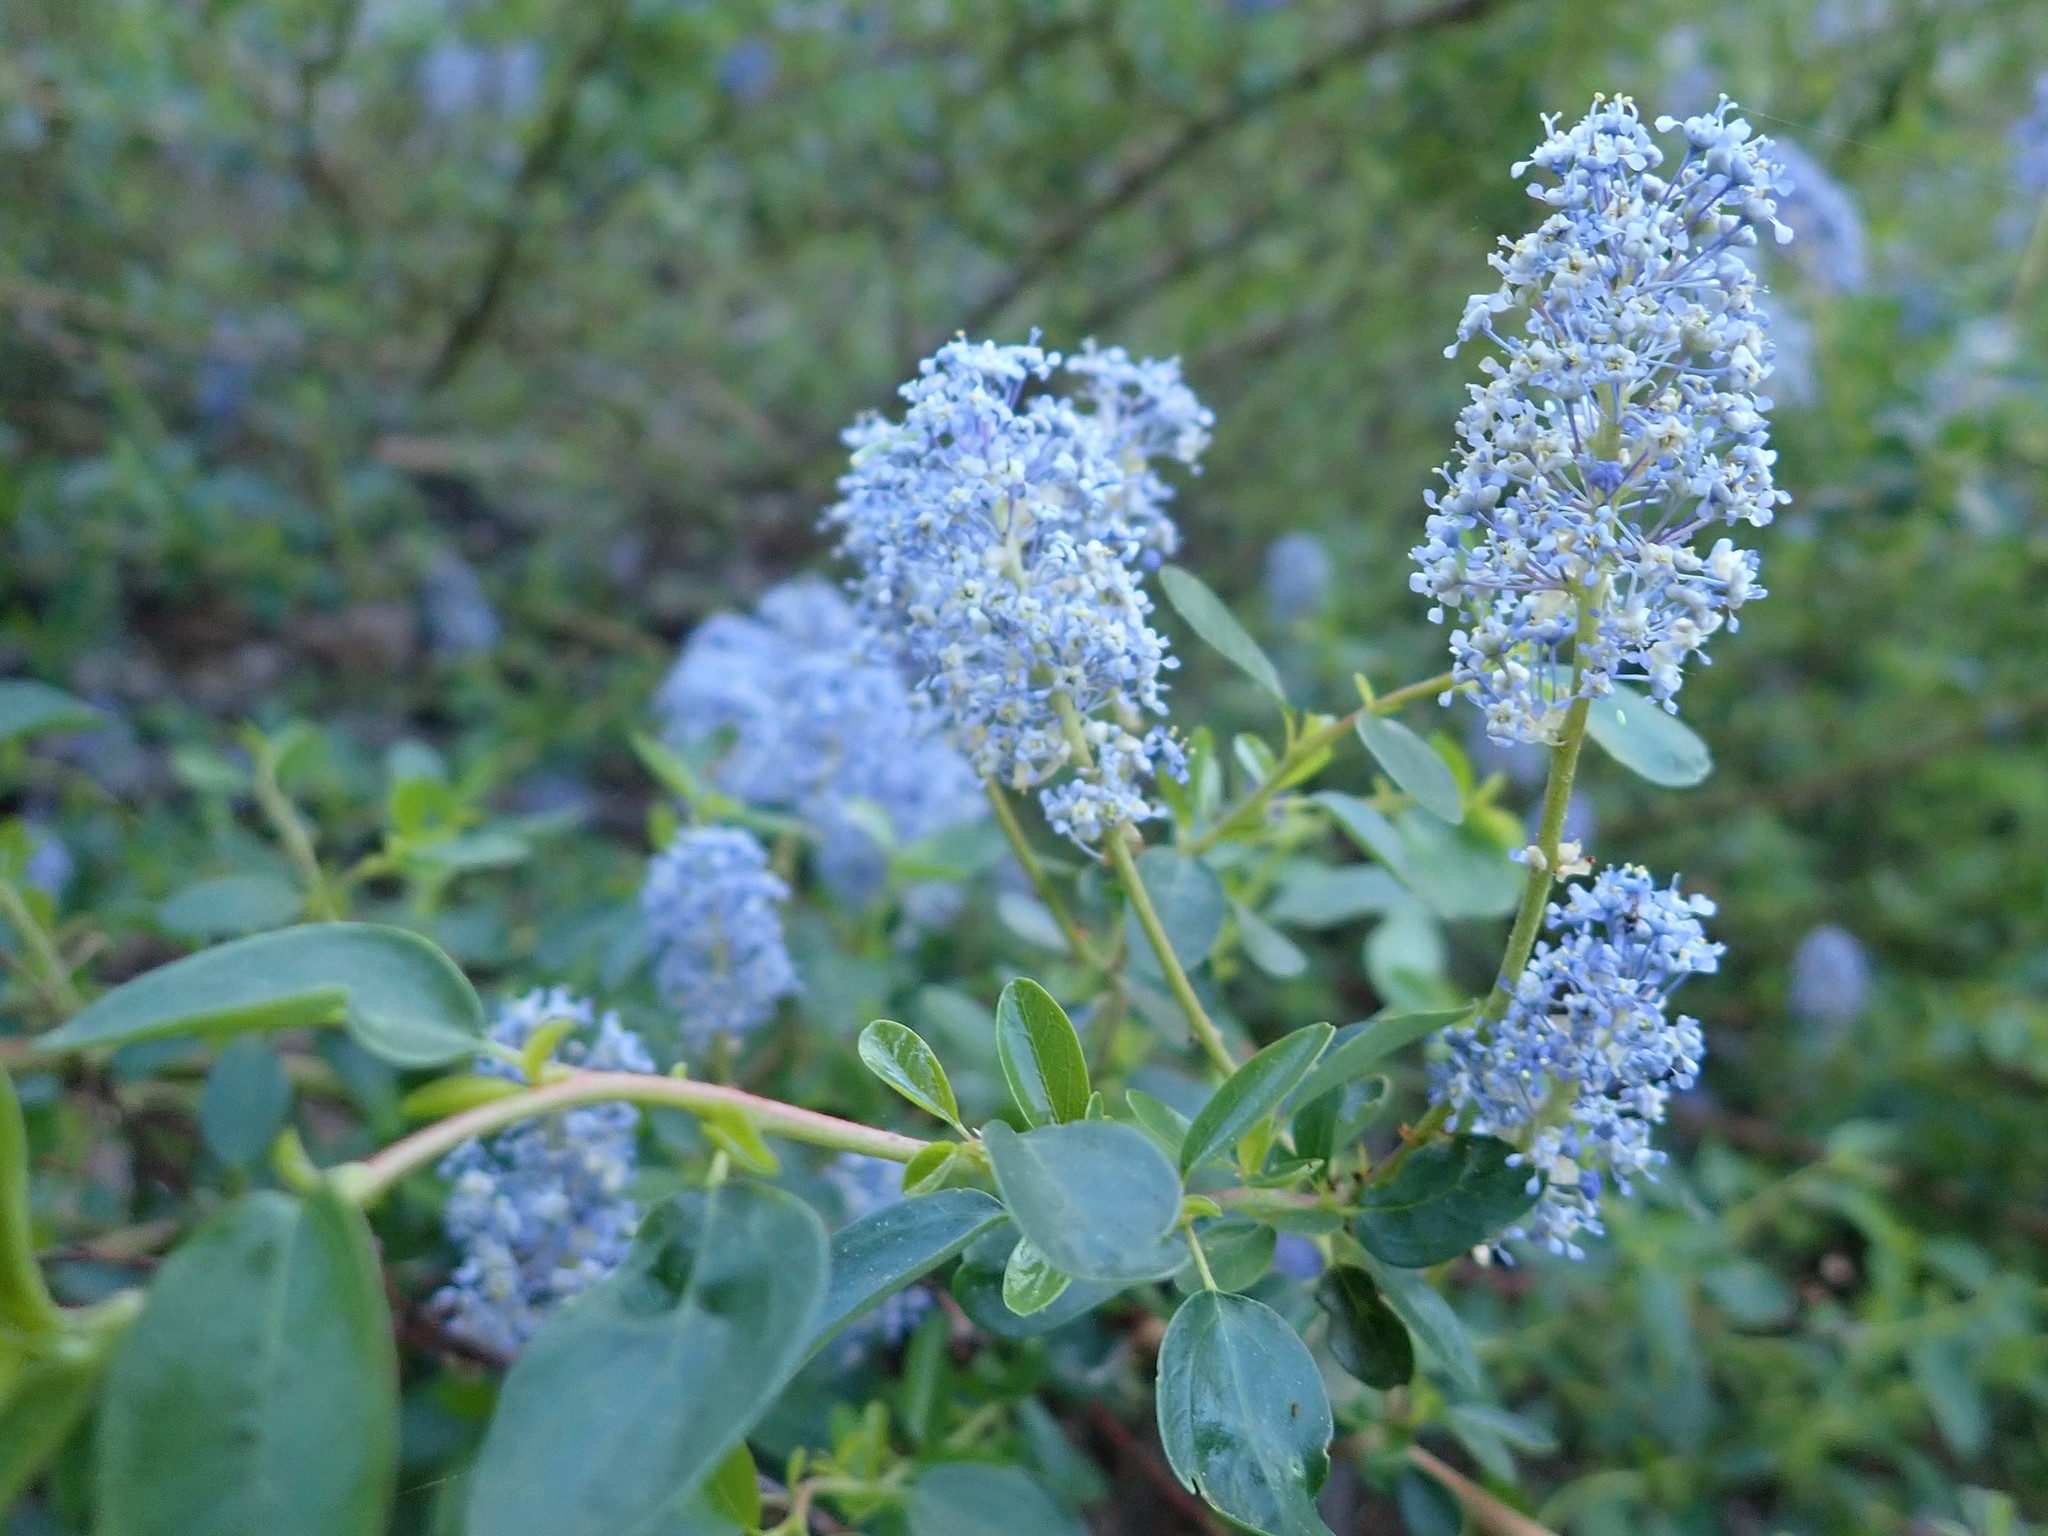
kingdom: Plantae
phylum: Tracheophyta
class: Magnoliopsida
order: Rosales
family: Rhamnaceae
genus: Ceanothus
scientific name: Ceanothus parvifolius
